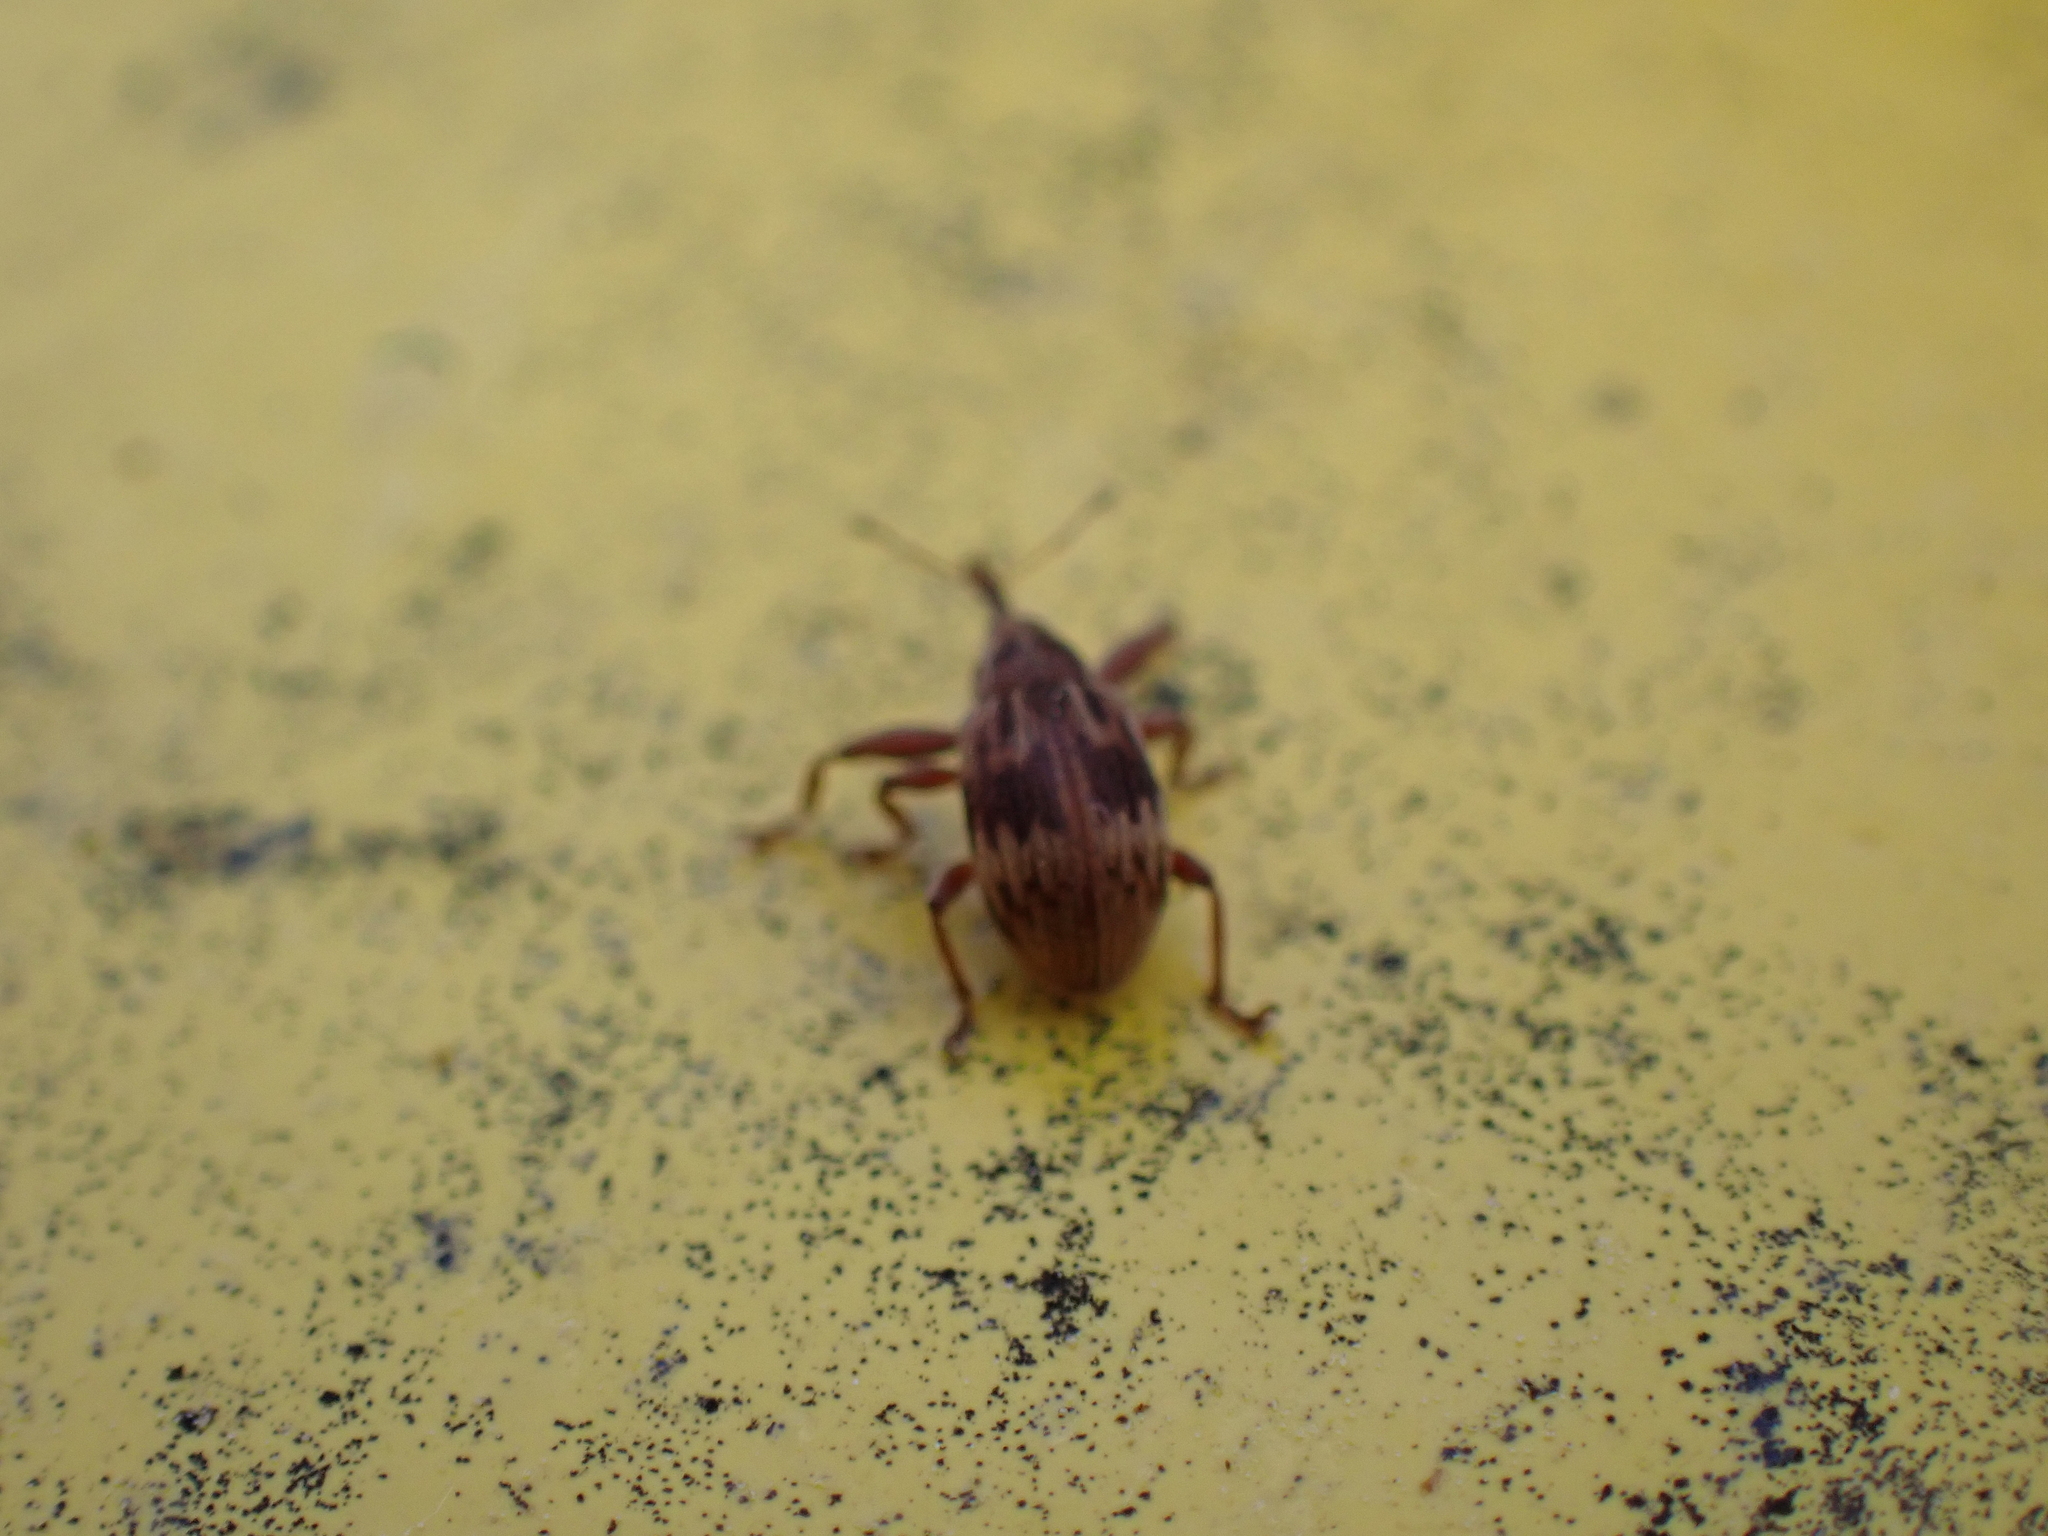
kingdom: Animalia
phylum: Arthropoda
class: Insecta
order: Coleoptera
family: Curculionidae
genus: Anthonomus
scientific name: Anthonomus rectirostris
